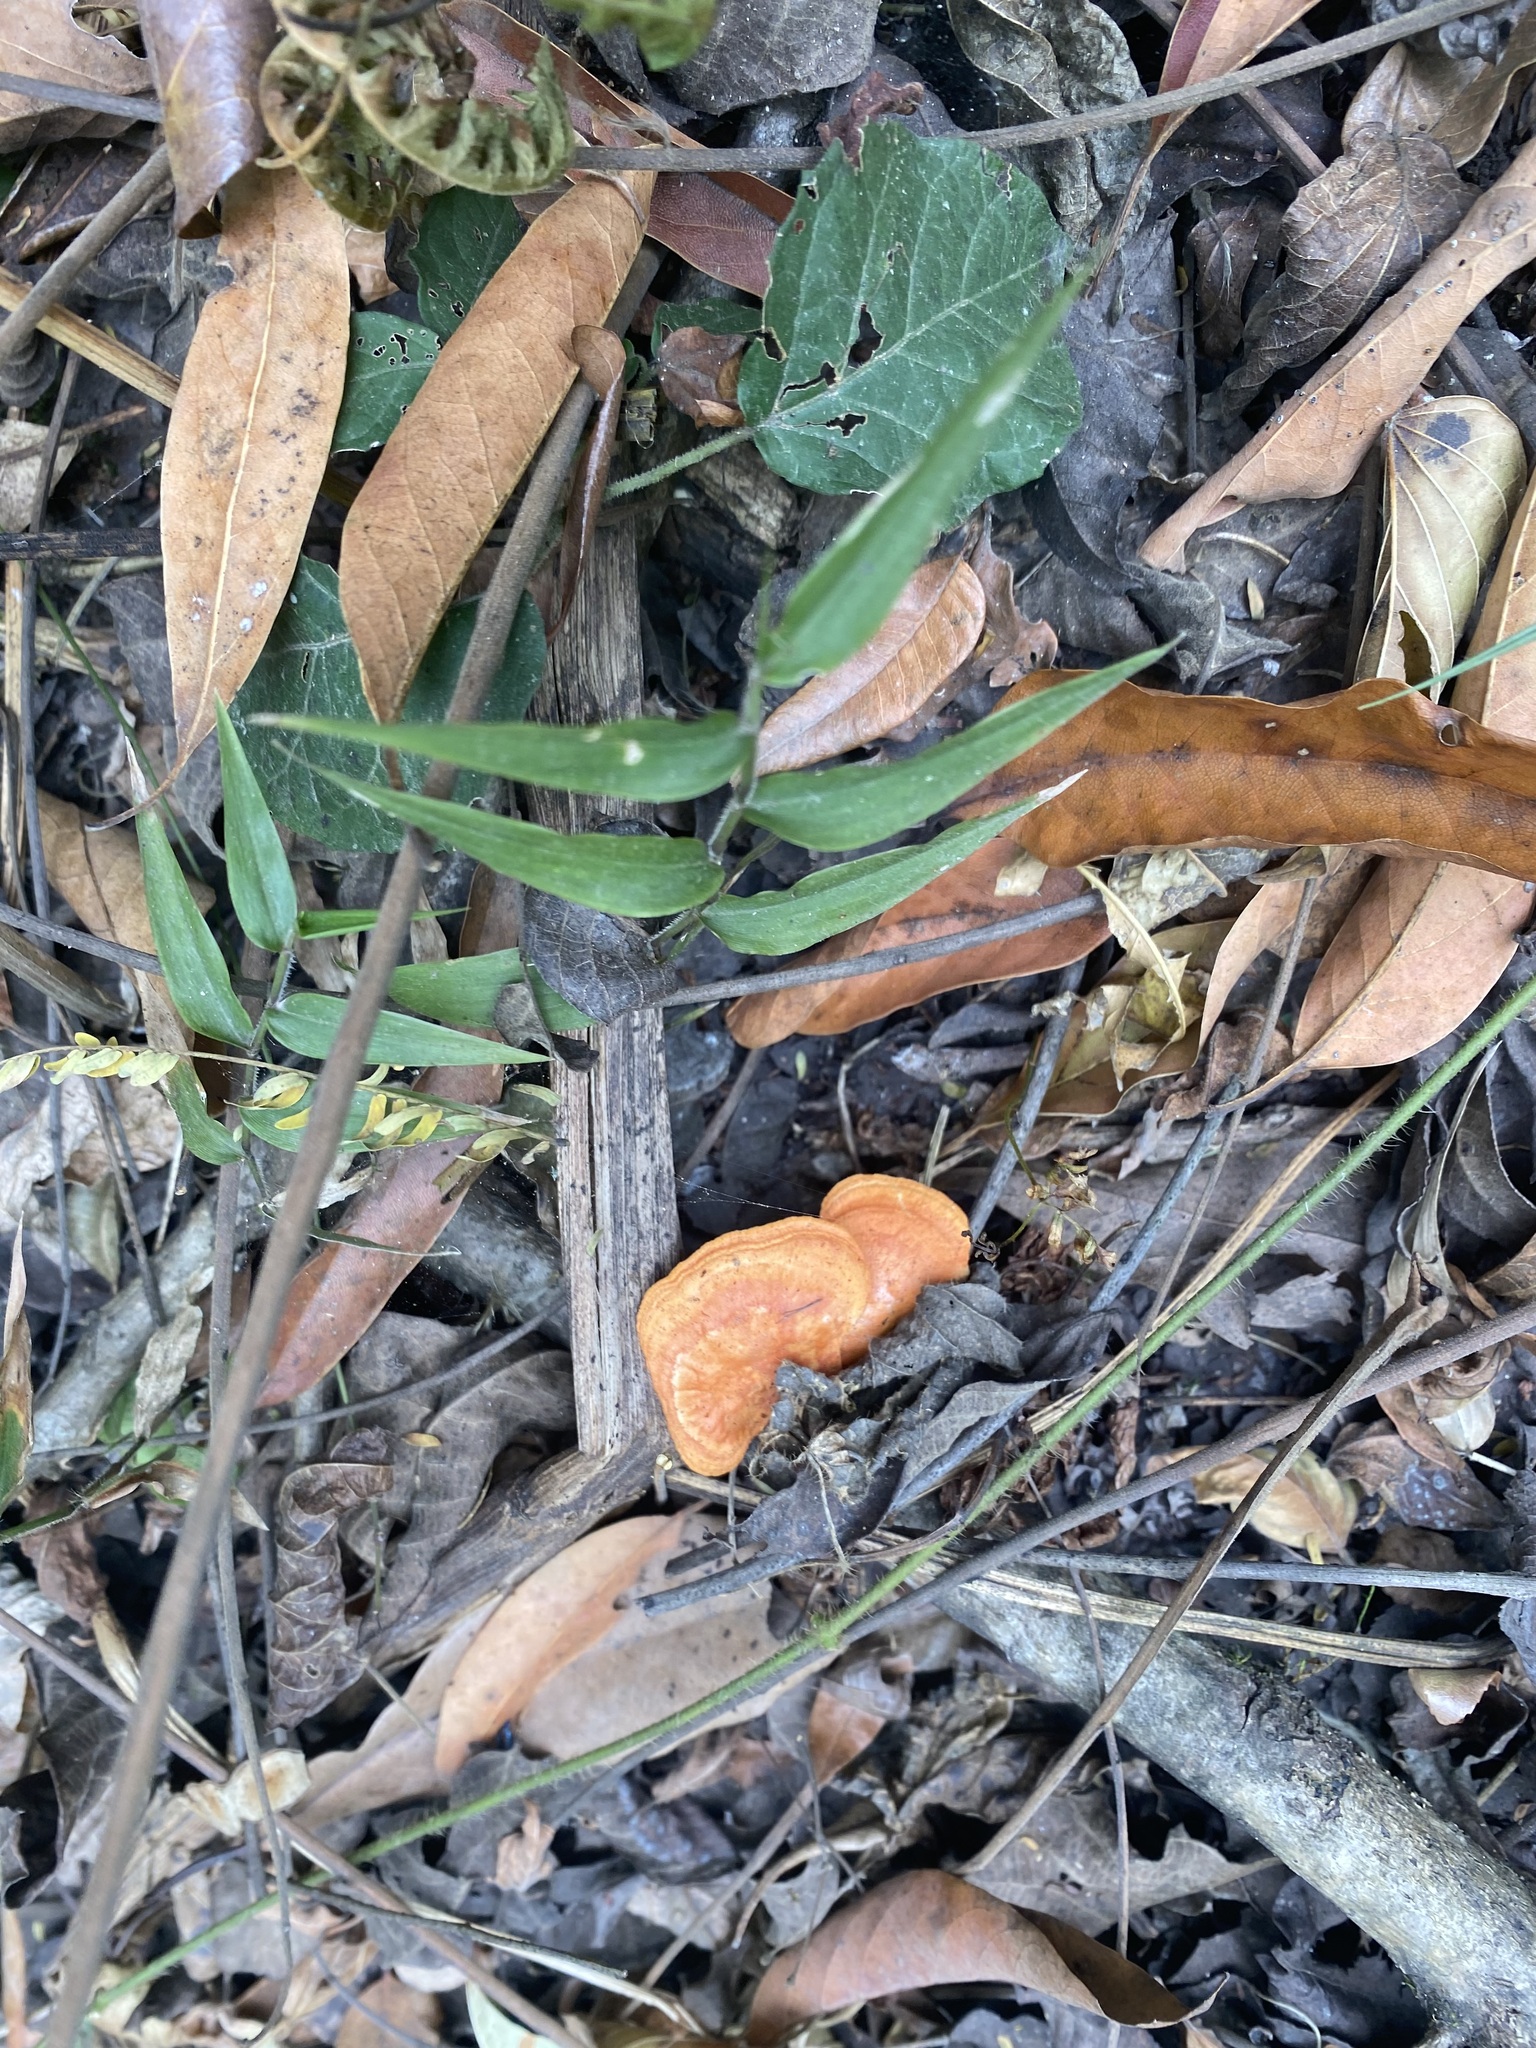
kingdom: Fungi
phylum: Basidiomycota
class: Agaricomycetes
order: Polyporales
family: Polyporaceae
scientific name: Polyporaceae
